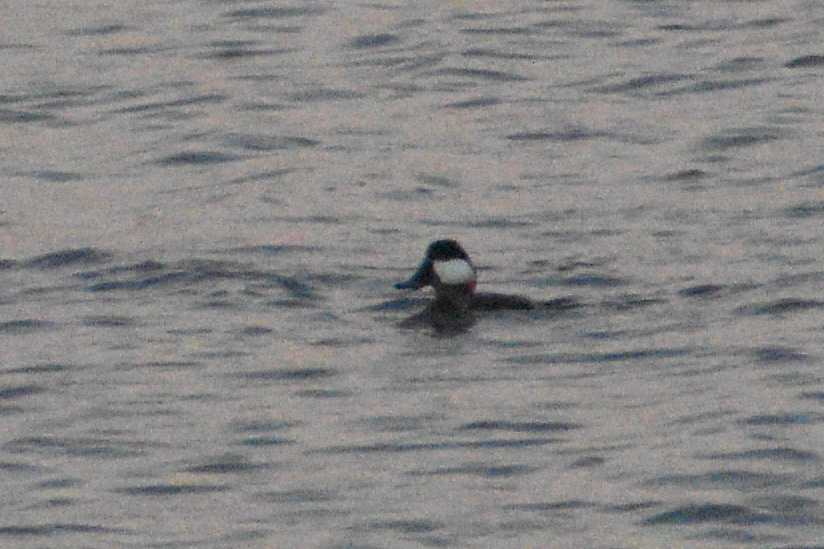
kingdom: Animalia
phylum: Chordata
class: Aves
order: Anseriformes
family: Anatidae
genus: Oxyura
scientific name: Oxyura jamaicensis
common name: Ruddy duck
